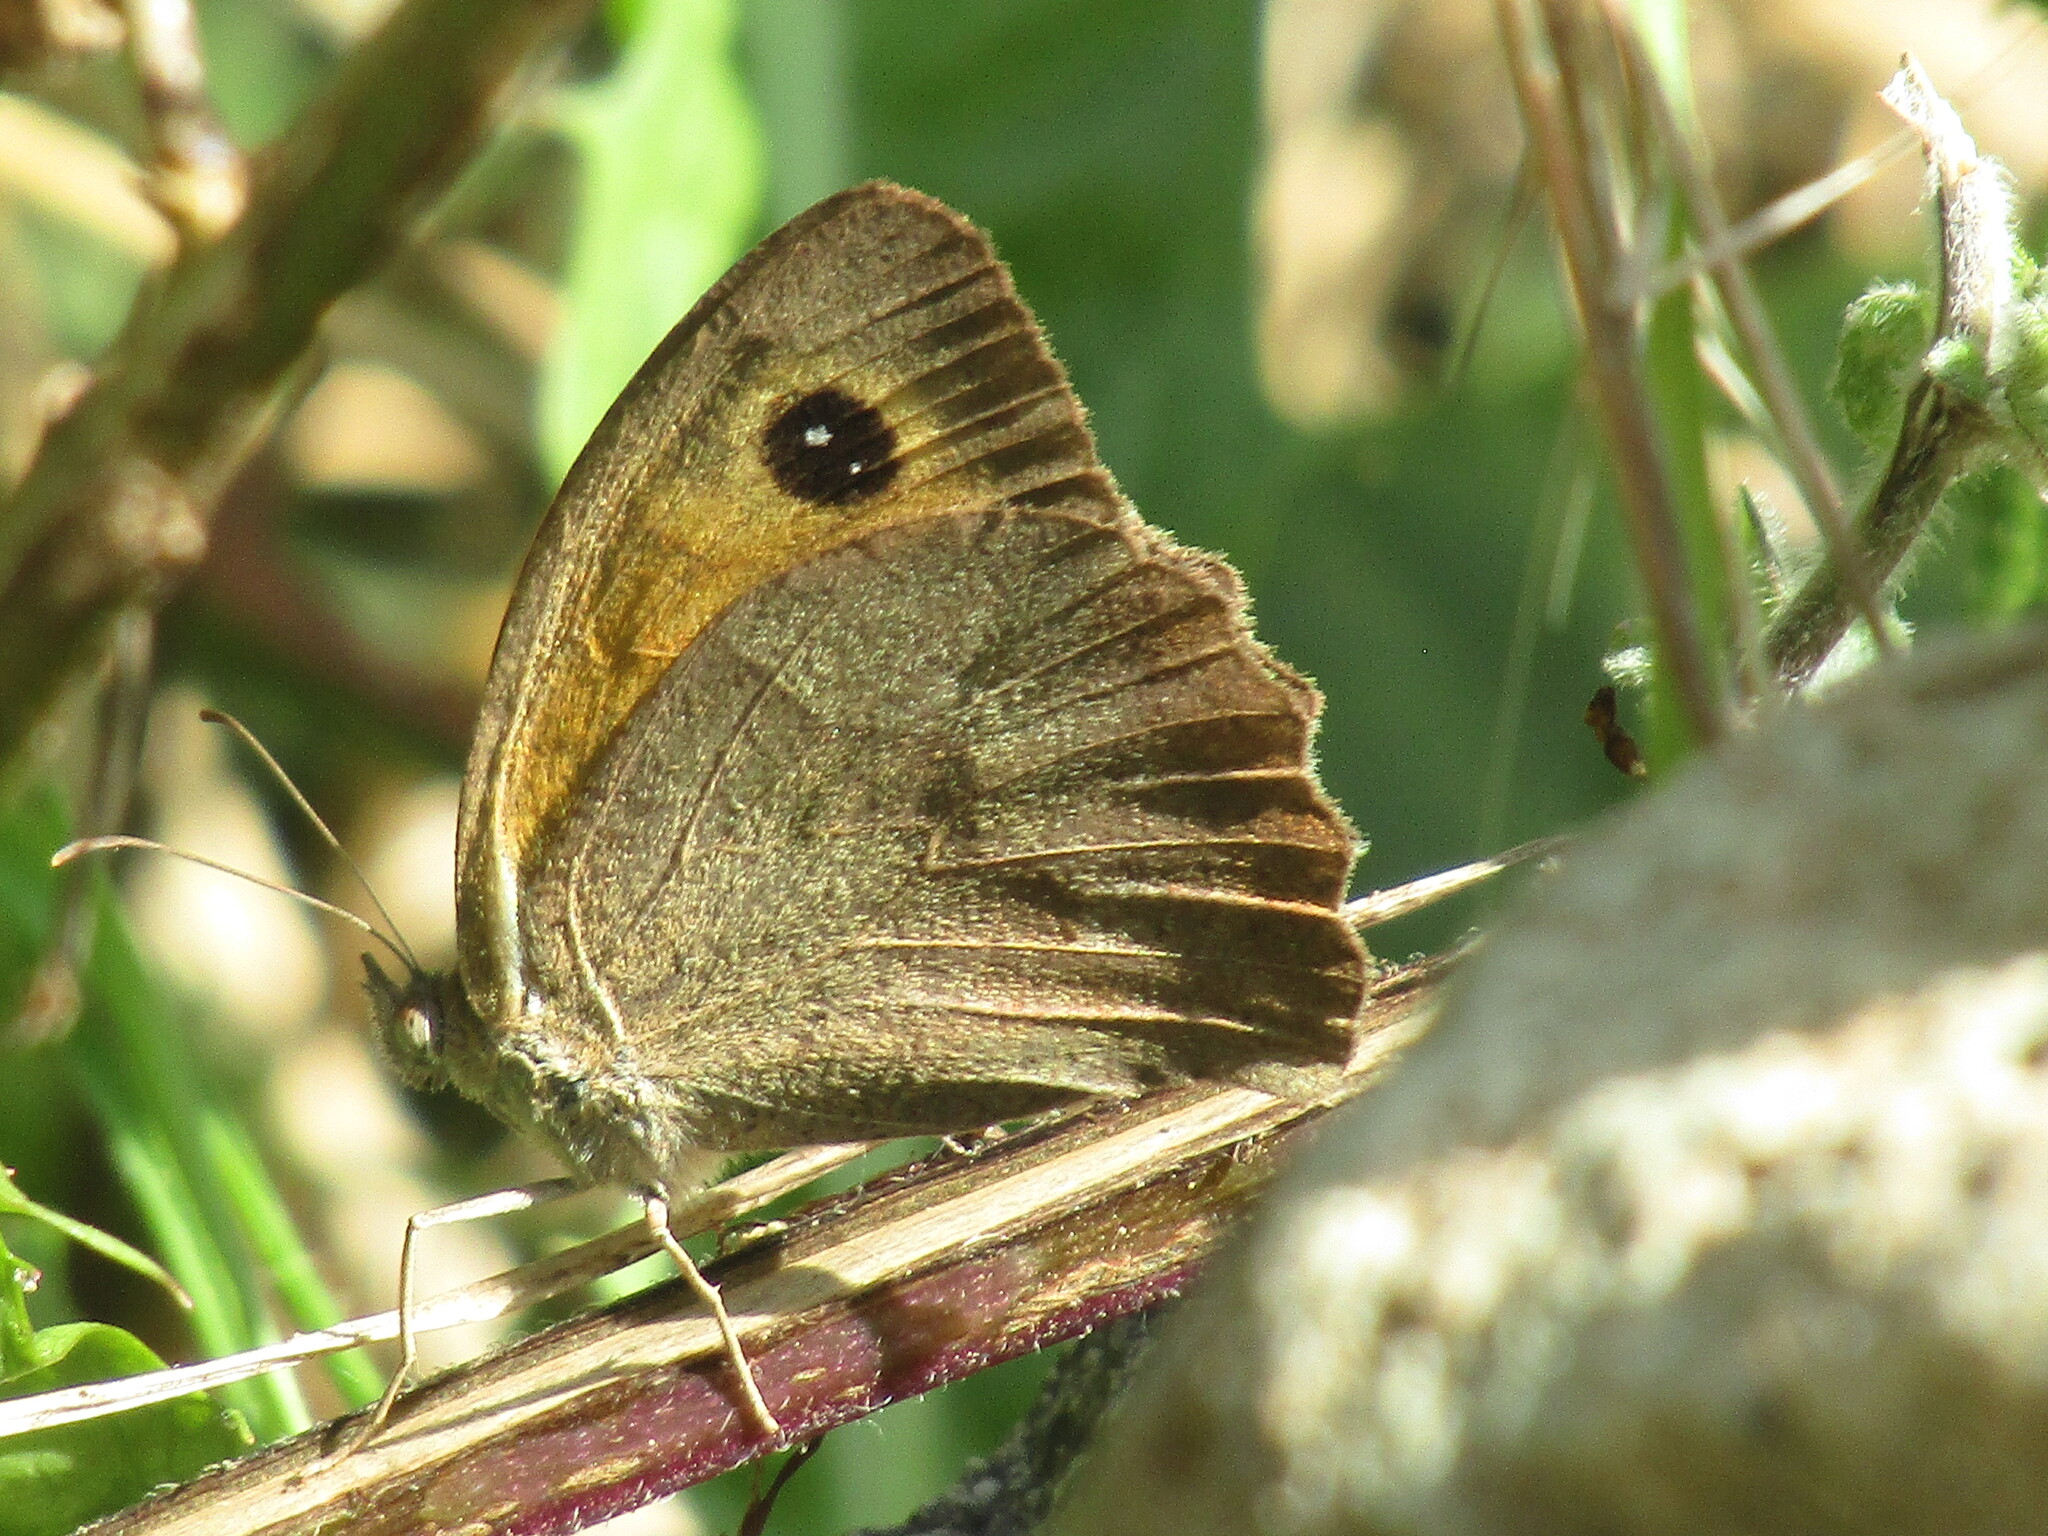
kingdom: Animalia
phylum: Arthropoda
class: Insecta
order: Lepidoptera
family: Nymphalidae
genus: Maniola
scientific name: Maniola jurtina
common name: Meadow brown
